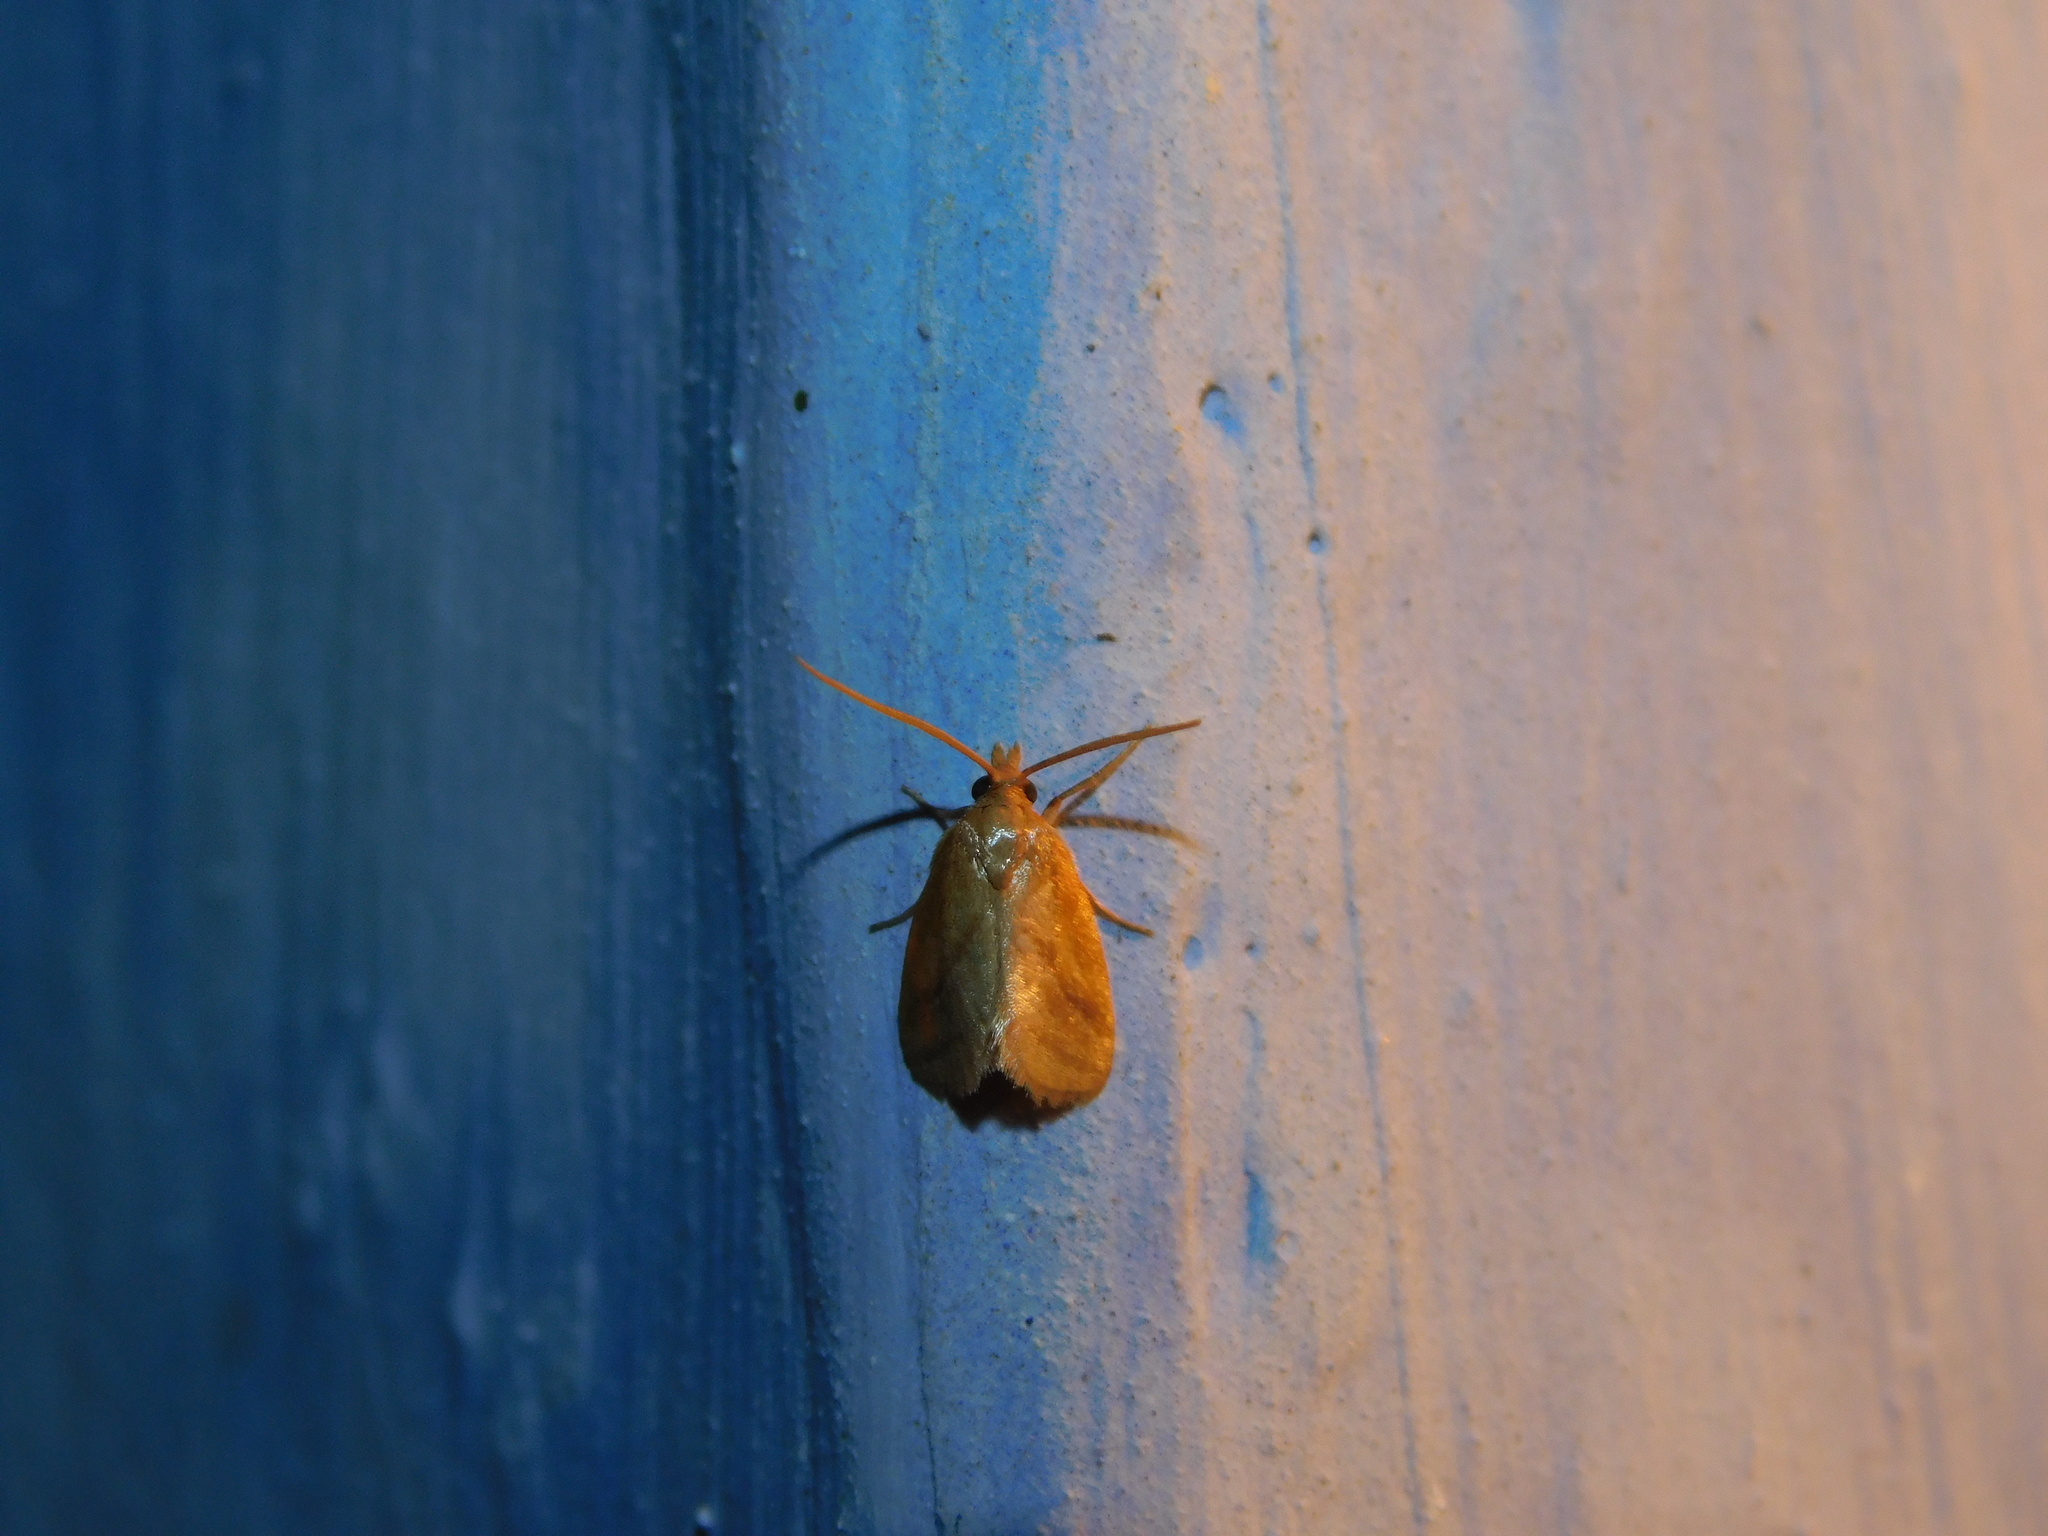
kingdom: Animalia
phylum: Arthropoda
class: Insecta
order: Lepidoptera
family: Noctuidae
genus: Naranga
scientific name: Naranga aenescens
